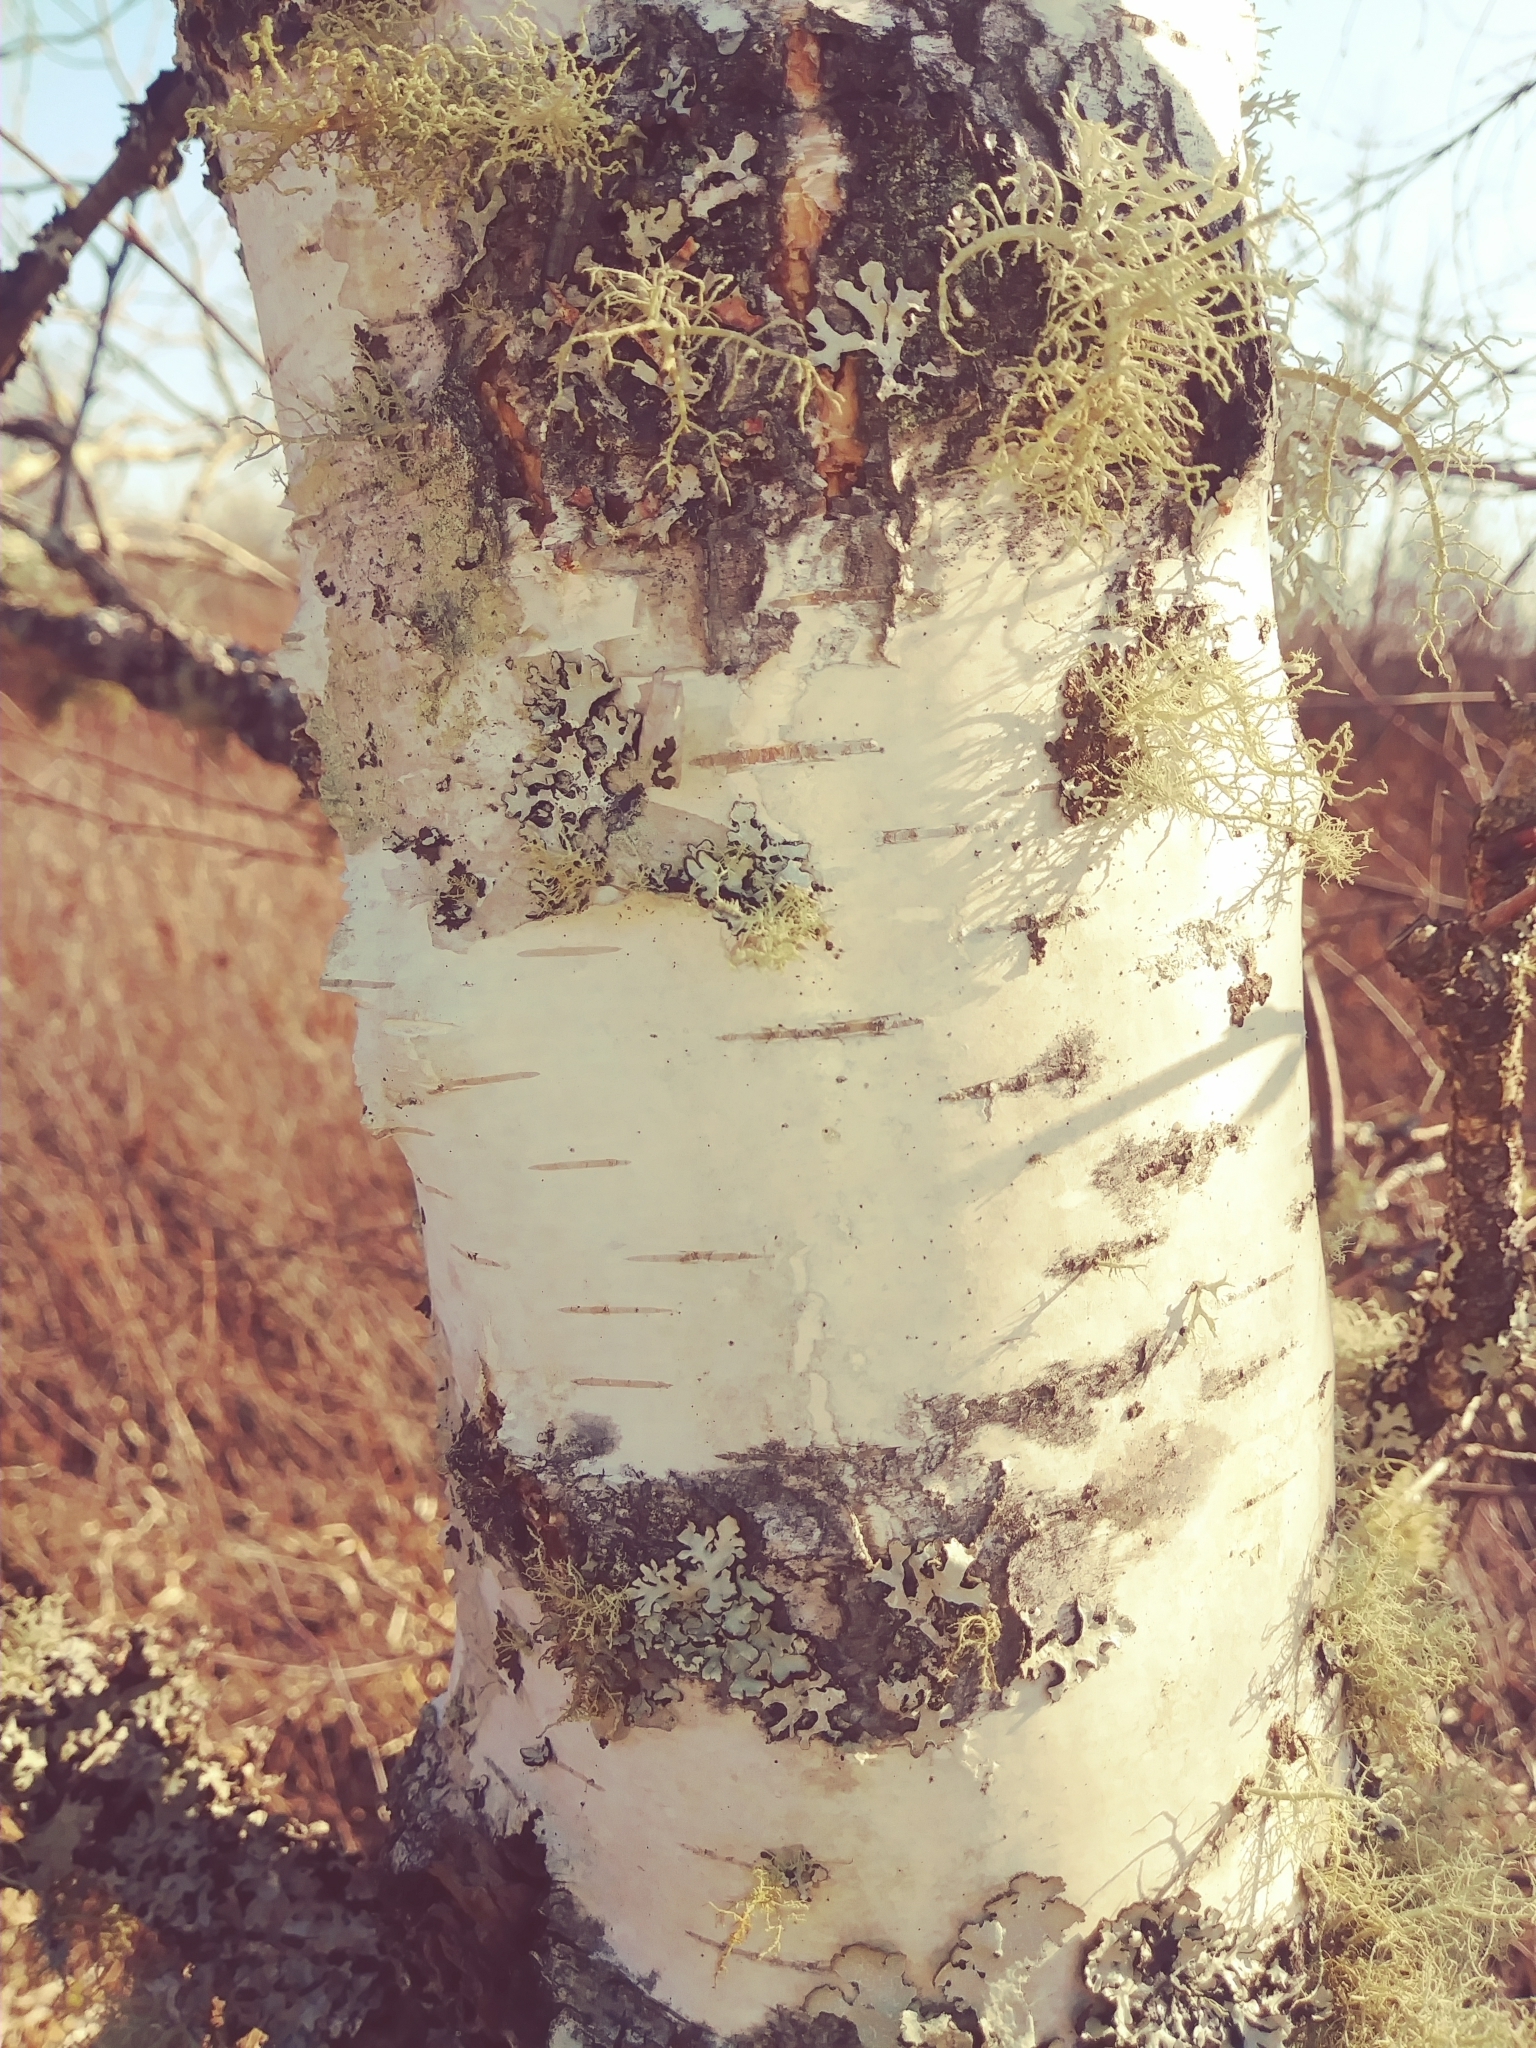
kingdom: Plantae
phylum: Tracheophyta
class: Magnoliopsida
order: Fagales
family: Betulaceae
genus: Betula
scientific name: Betula pendula
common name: Silver birch
